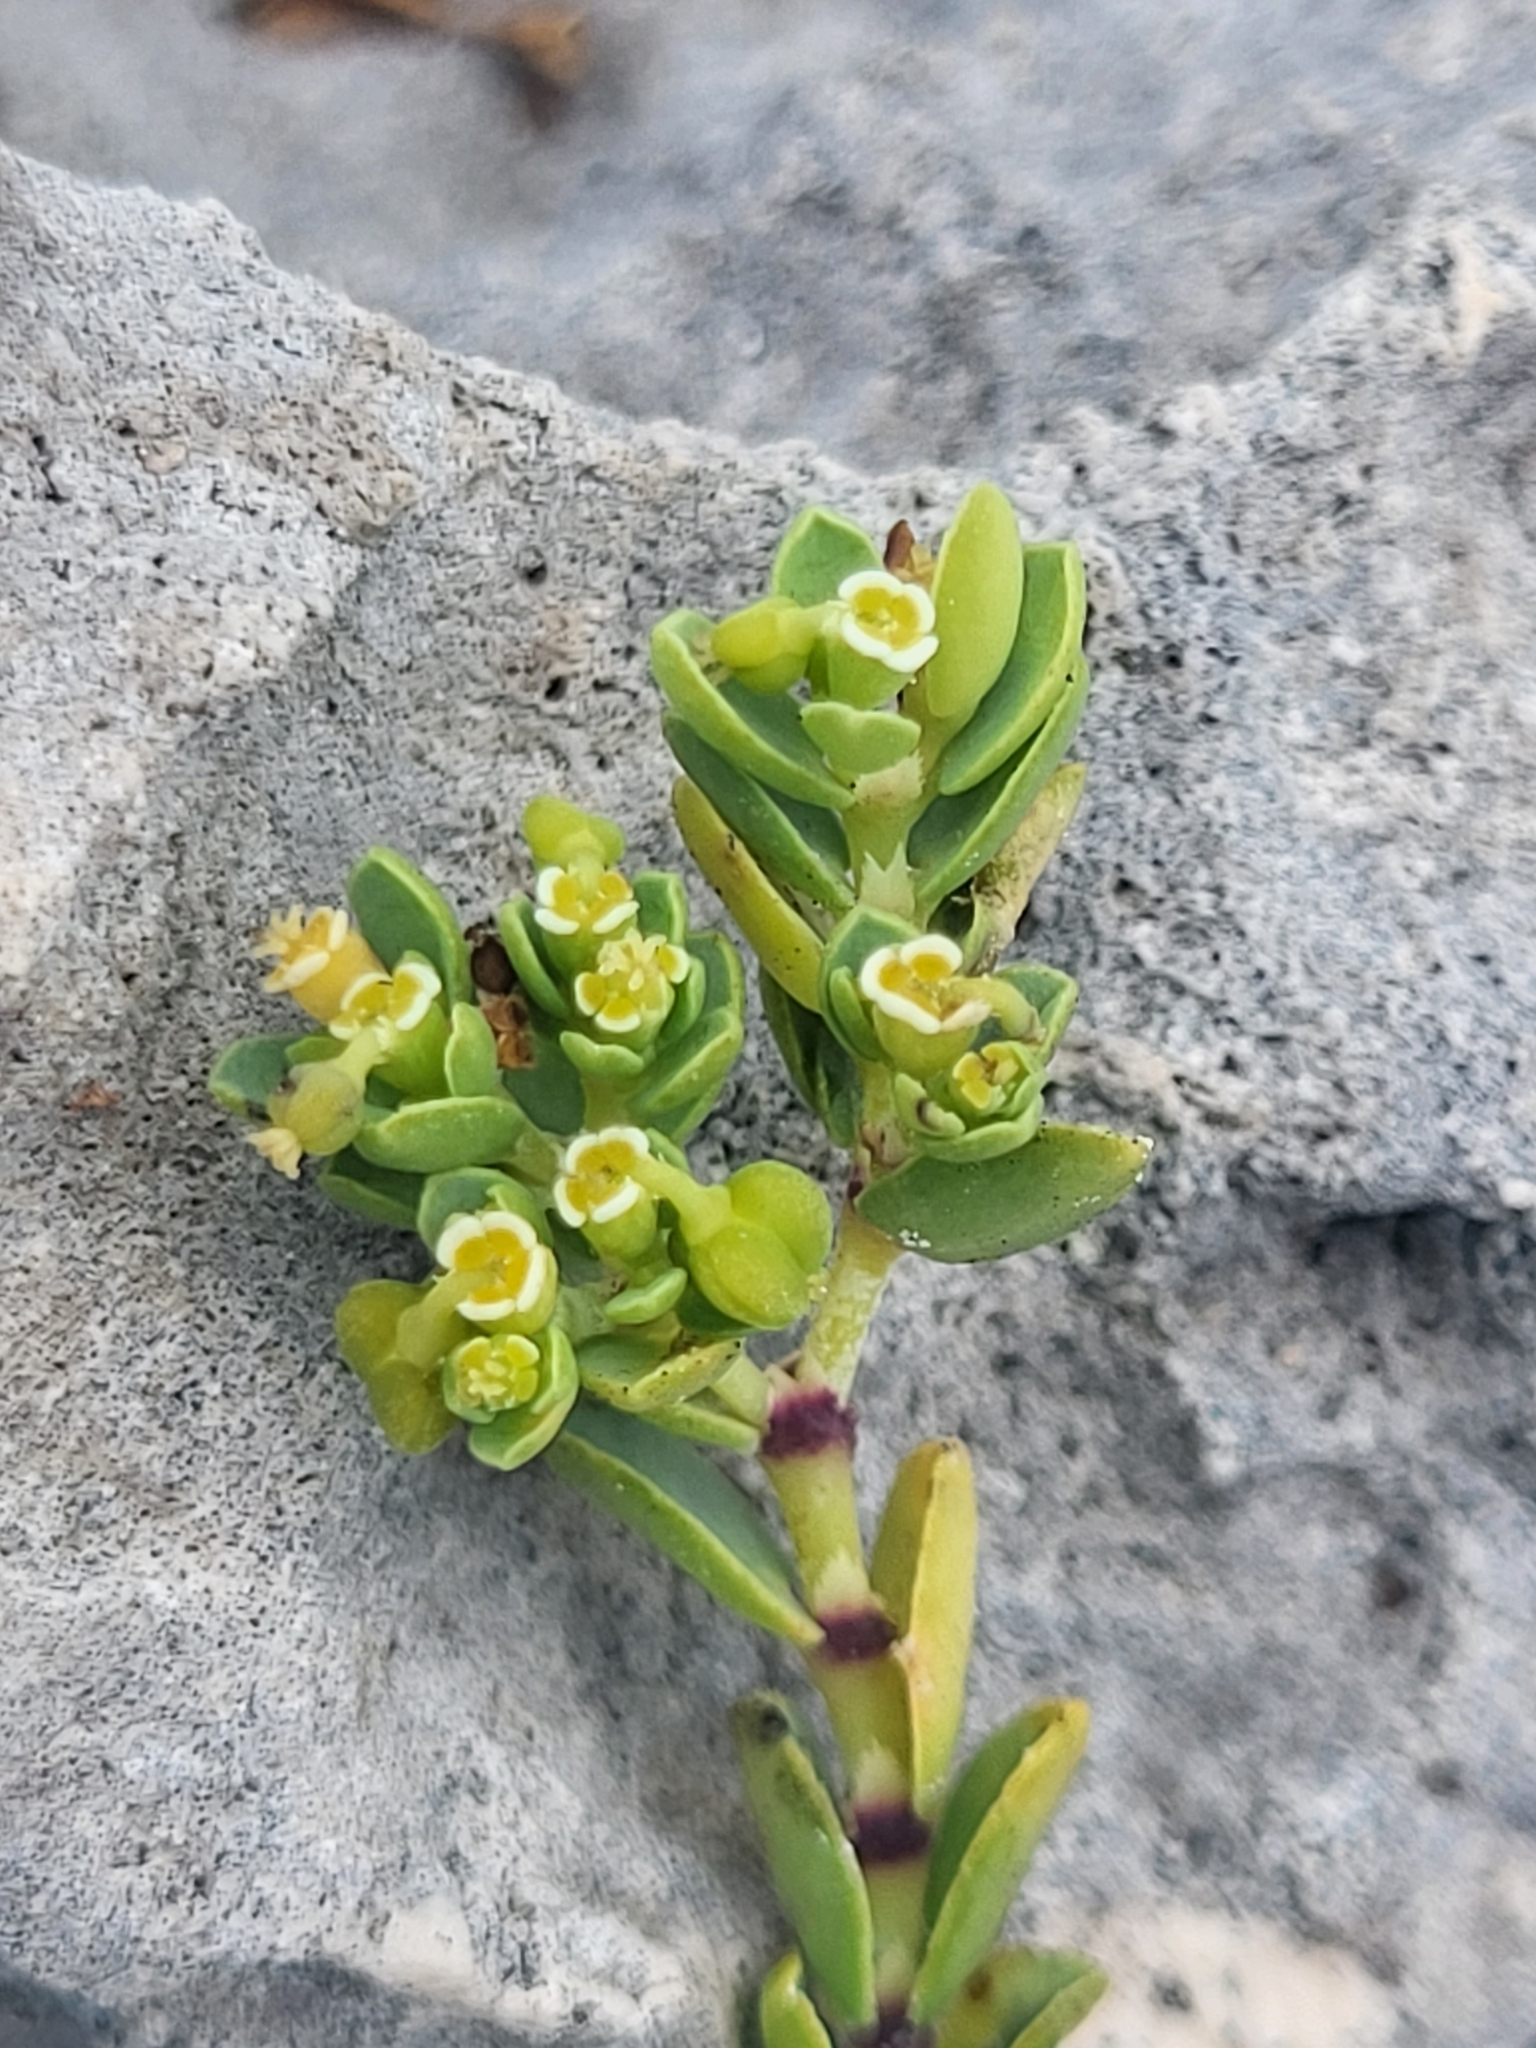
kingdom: Plantae
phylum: Tracheophyta
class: Magnoliopsida
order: Malpighiales
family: Euphorbiaceae
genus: Euphorbia
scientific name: Euphorbia mesembryanthemifolia
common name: Coastal beach sandmat
